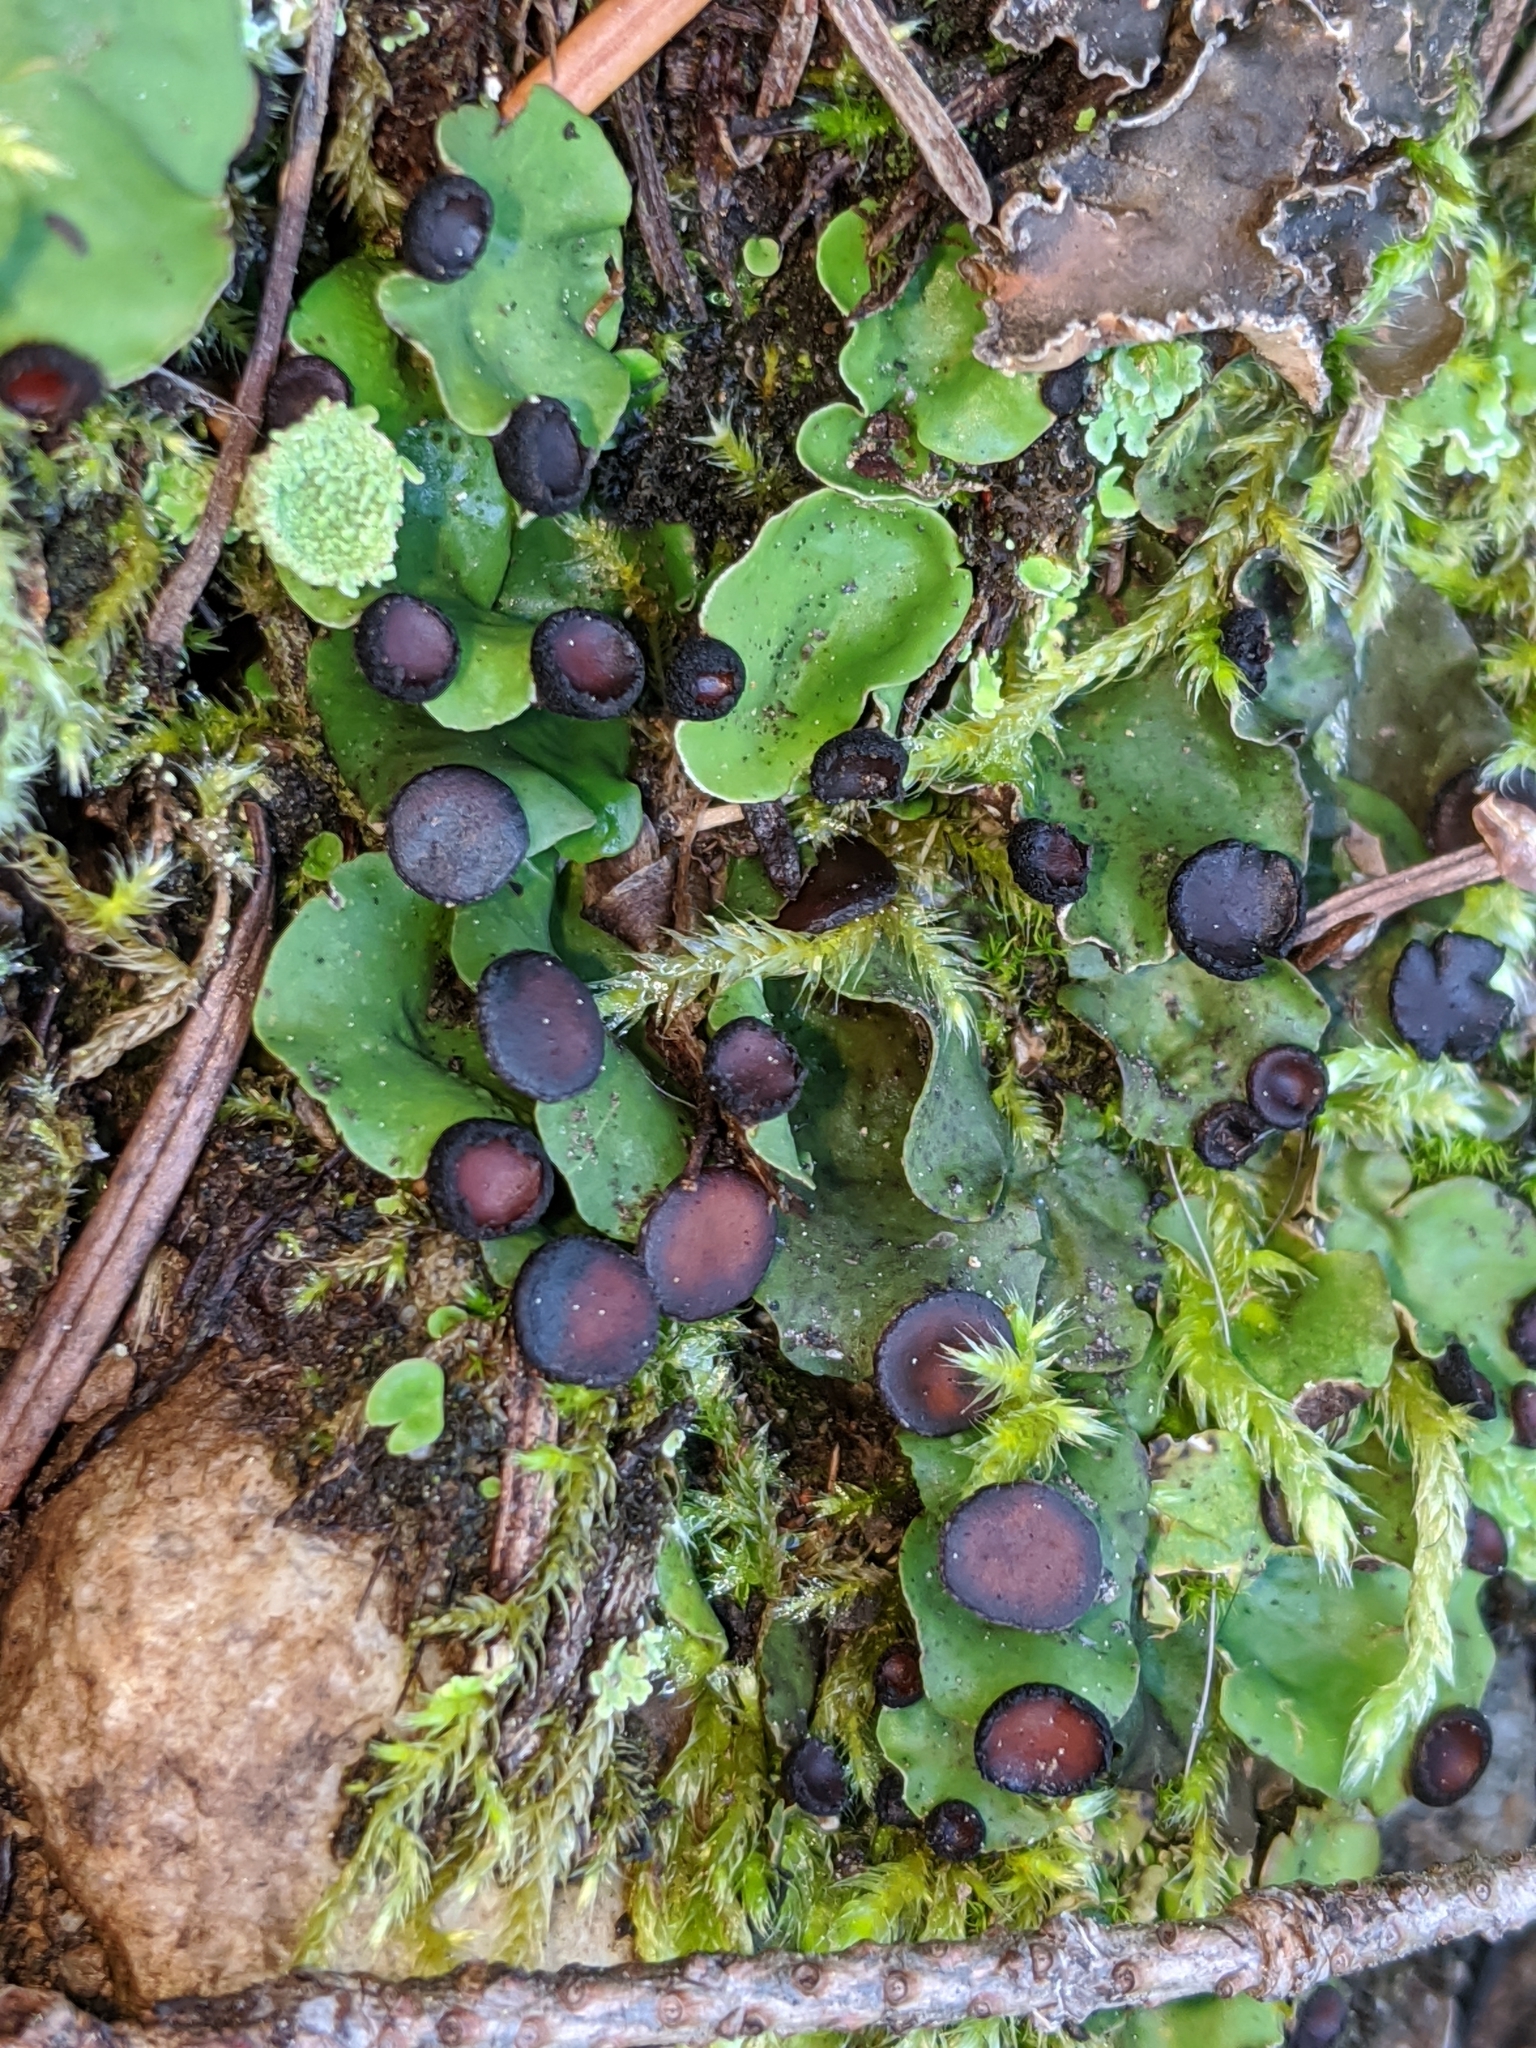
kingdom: Fungi
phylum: Ascomycota
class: Lecanoromycetes
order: Peltigerales
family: Peltigeraceae
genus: Peltigera
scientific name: Peltigera venosa
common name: Pixie gowns lichen
